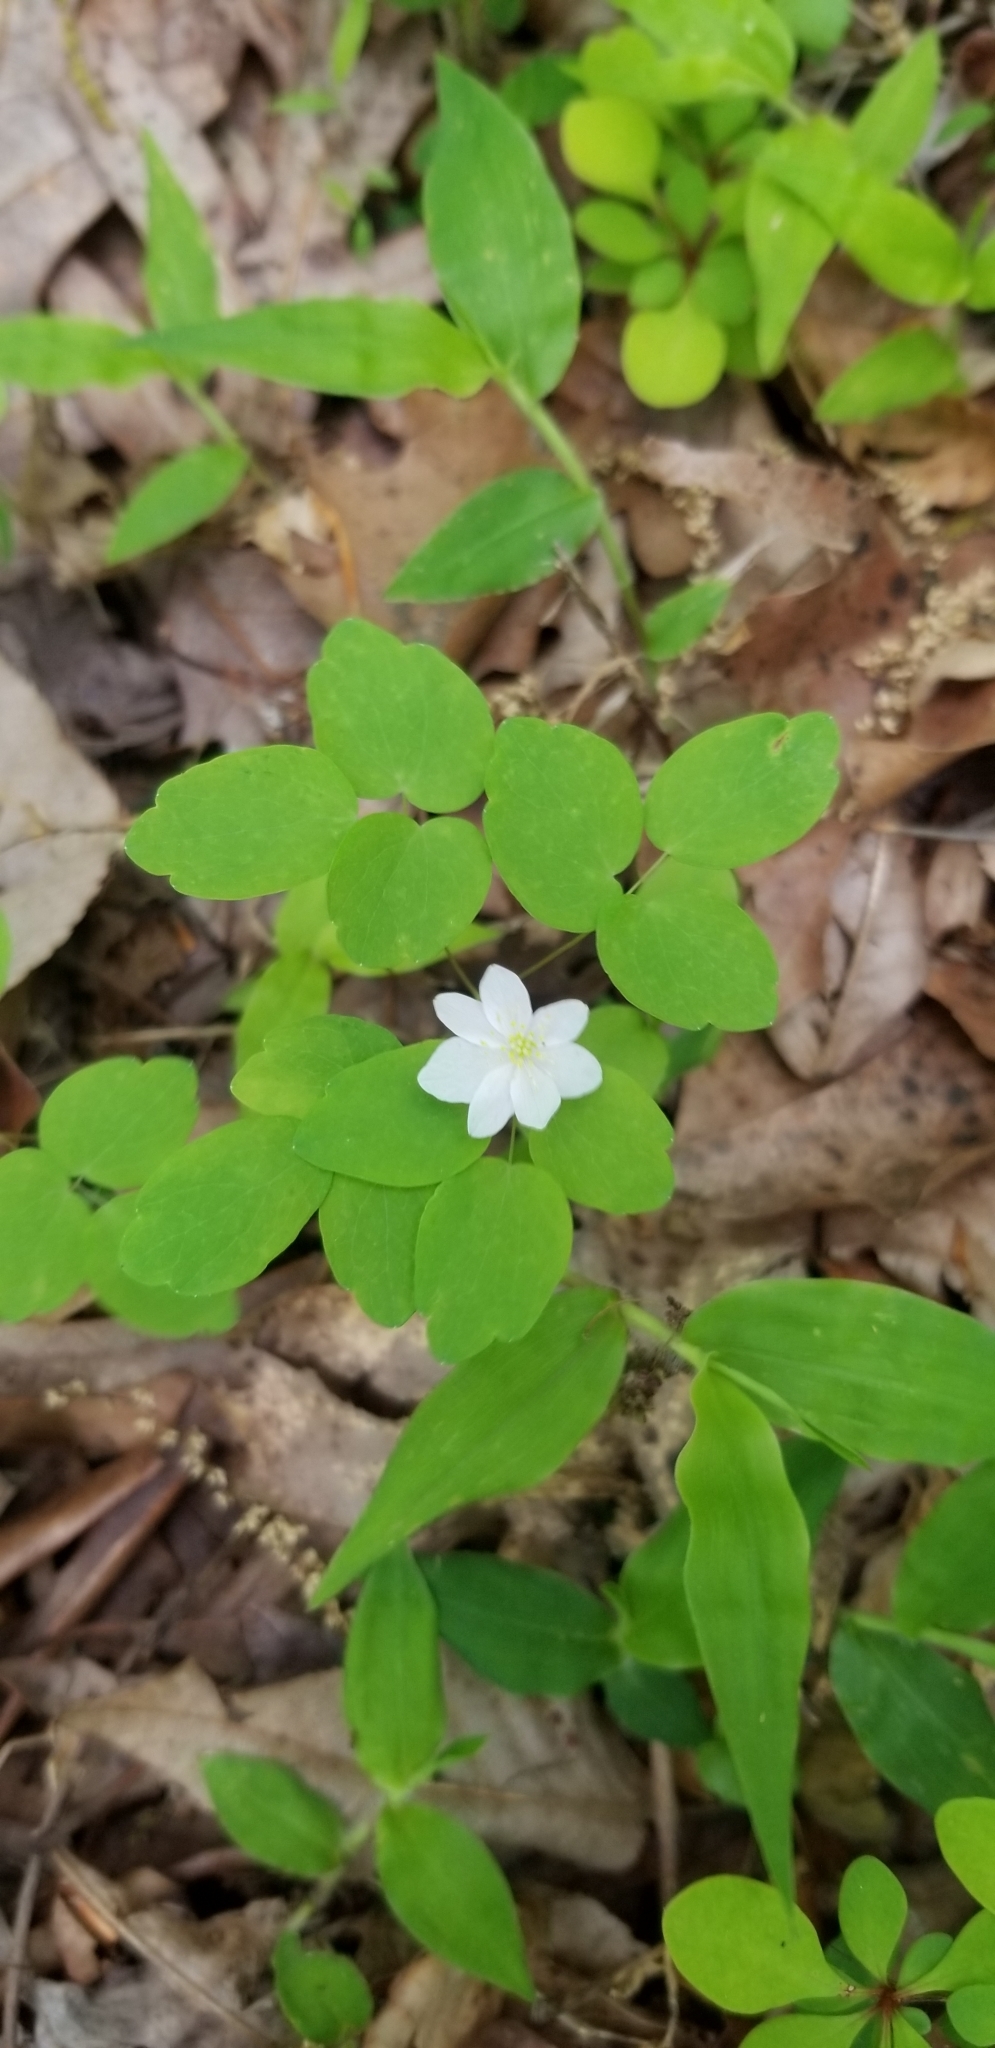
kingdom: Plantae
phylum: Tracheophyta
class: Magnoliopsida
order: Ranunculales
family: Ranunculaceae
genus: Thalictrum
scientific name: Thalictrum thalictroides
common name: Rue-anemone
